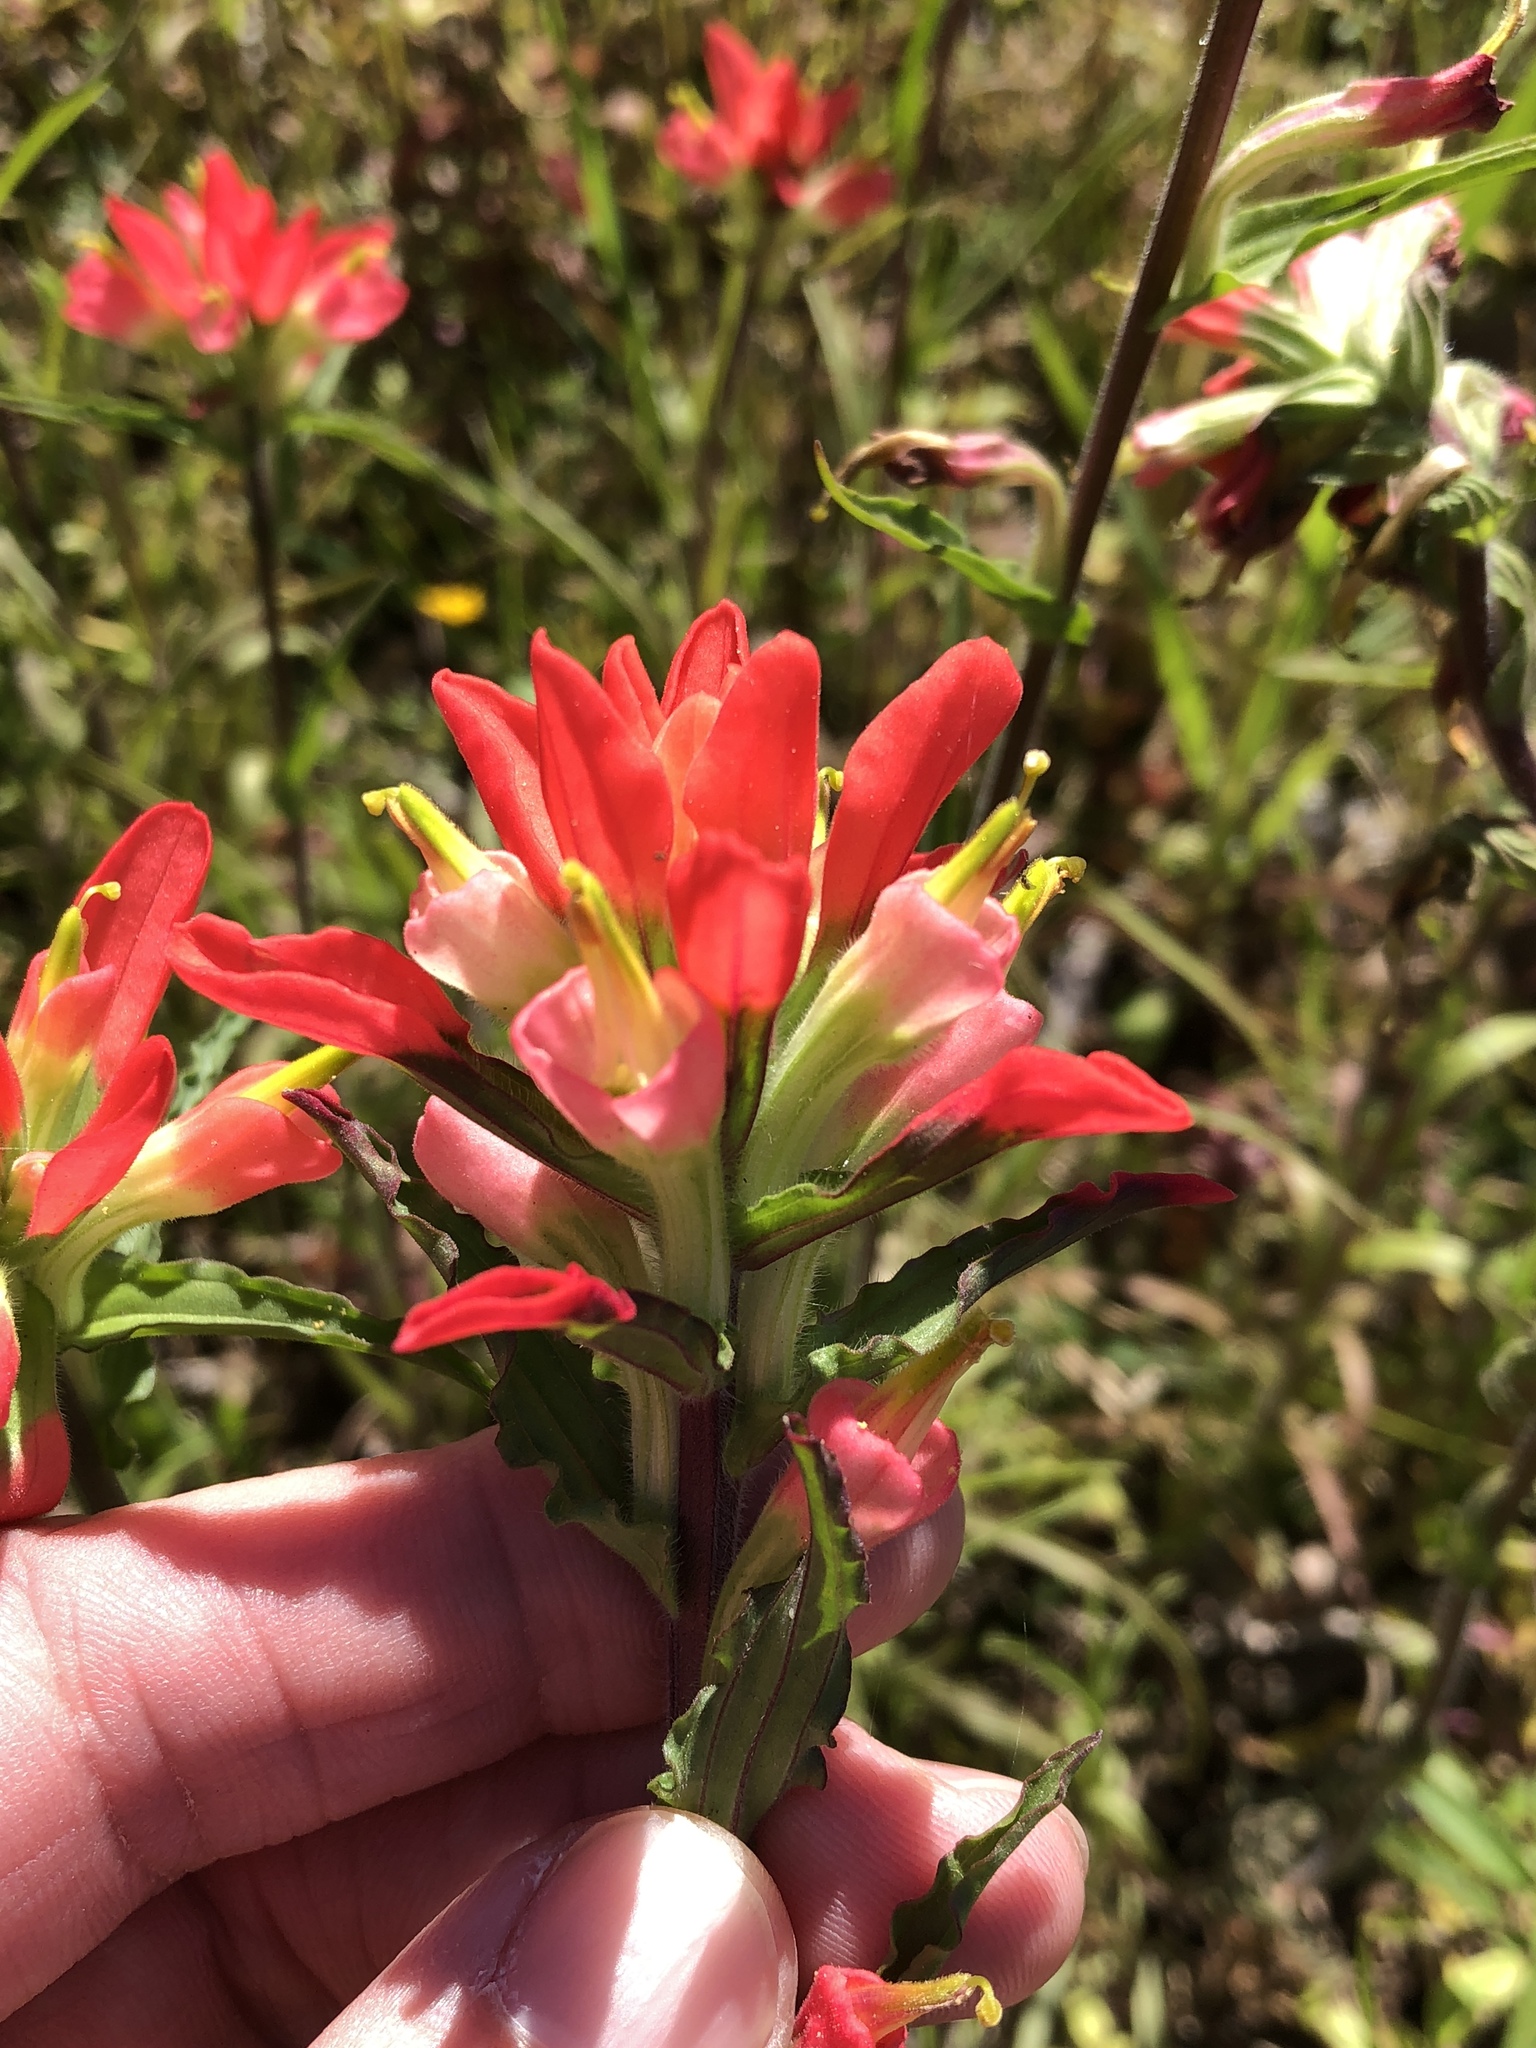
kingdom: Plantae
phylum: Tracheophyta
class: Magnoliopsida
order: Lamiales
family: Orobanchaceae
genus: Castilleja
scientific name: Castilleja indivisa
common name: Texas paintbrush
